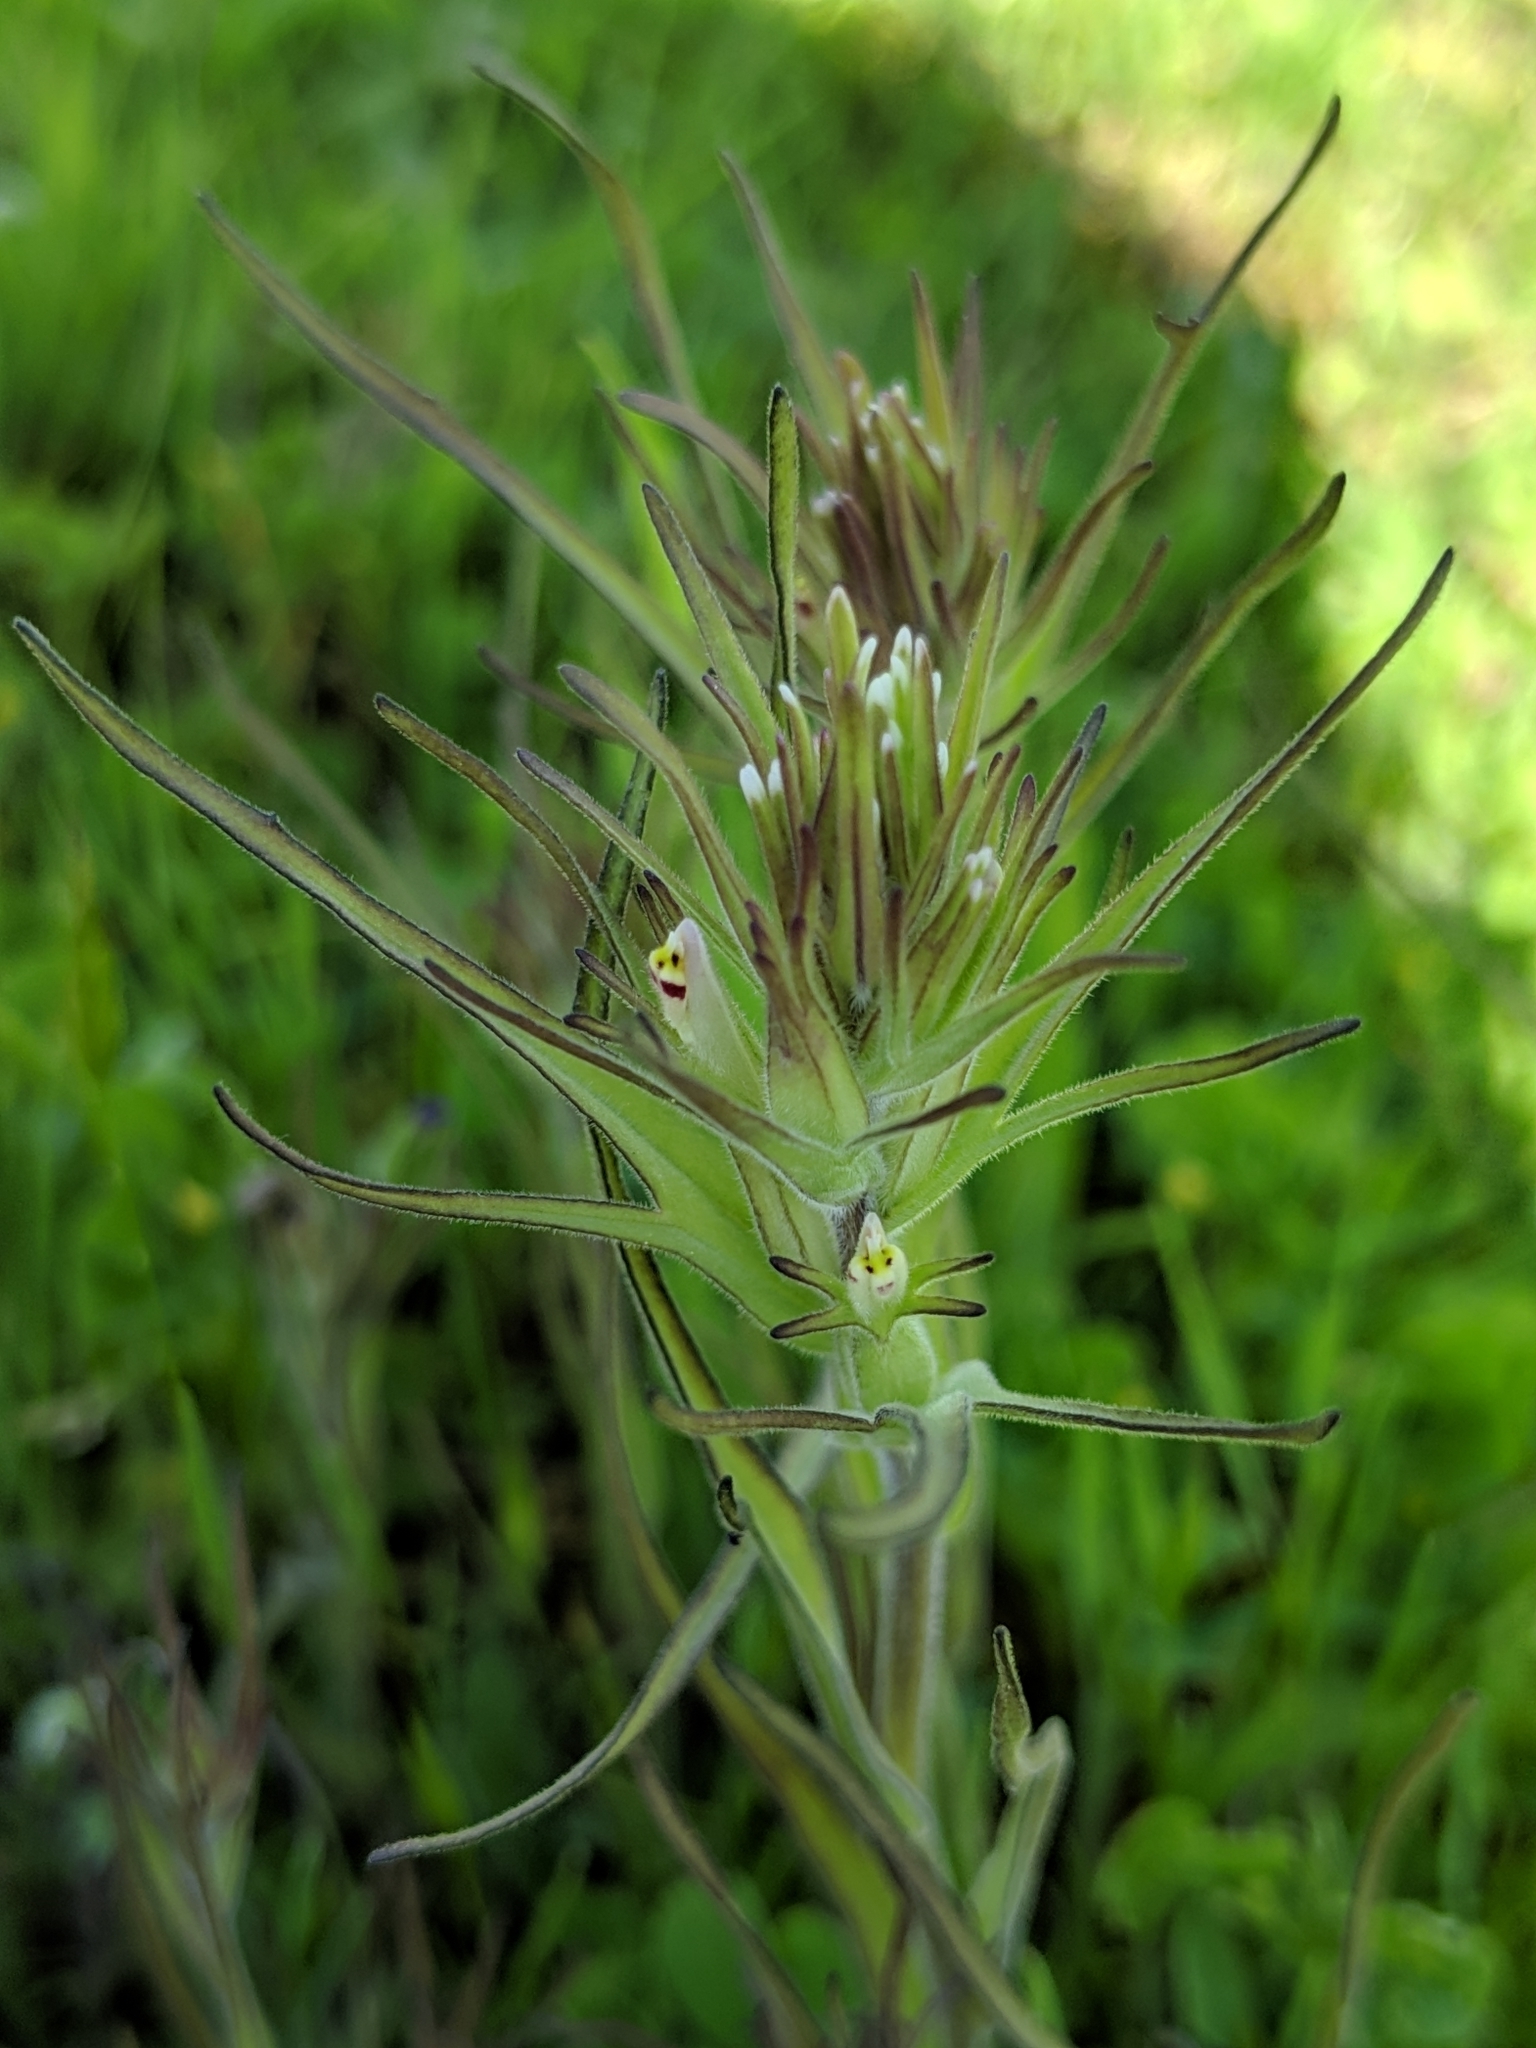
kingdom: Plantae
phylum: Tracheophyta
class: Magnoliopsida
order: Lamiales
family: Orobanchaceae
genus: Castilleja
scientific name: Castilleja attenuata
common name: Valley tassels
